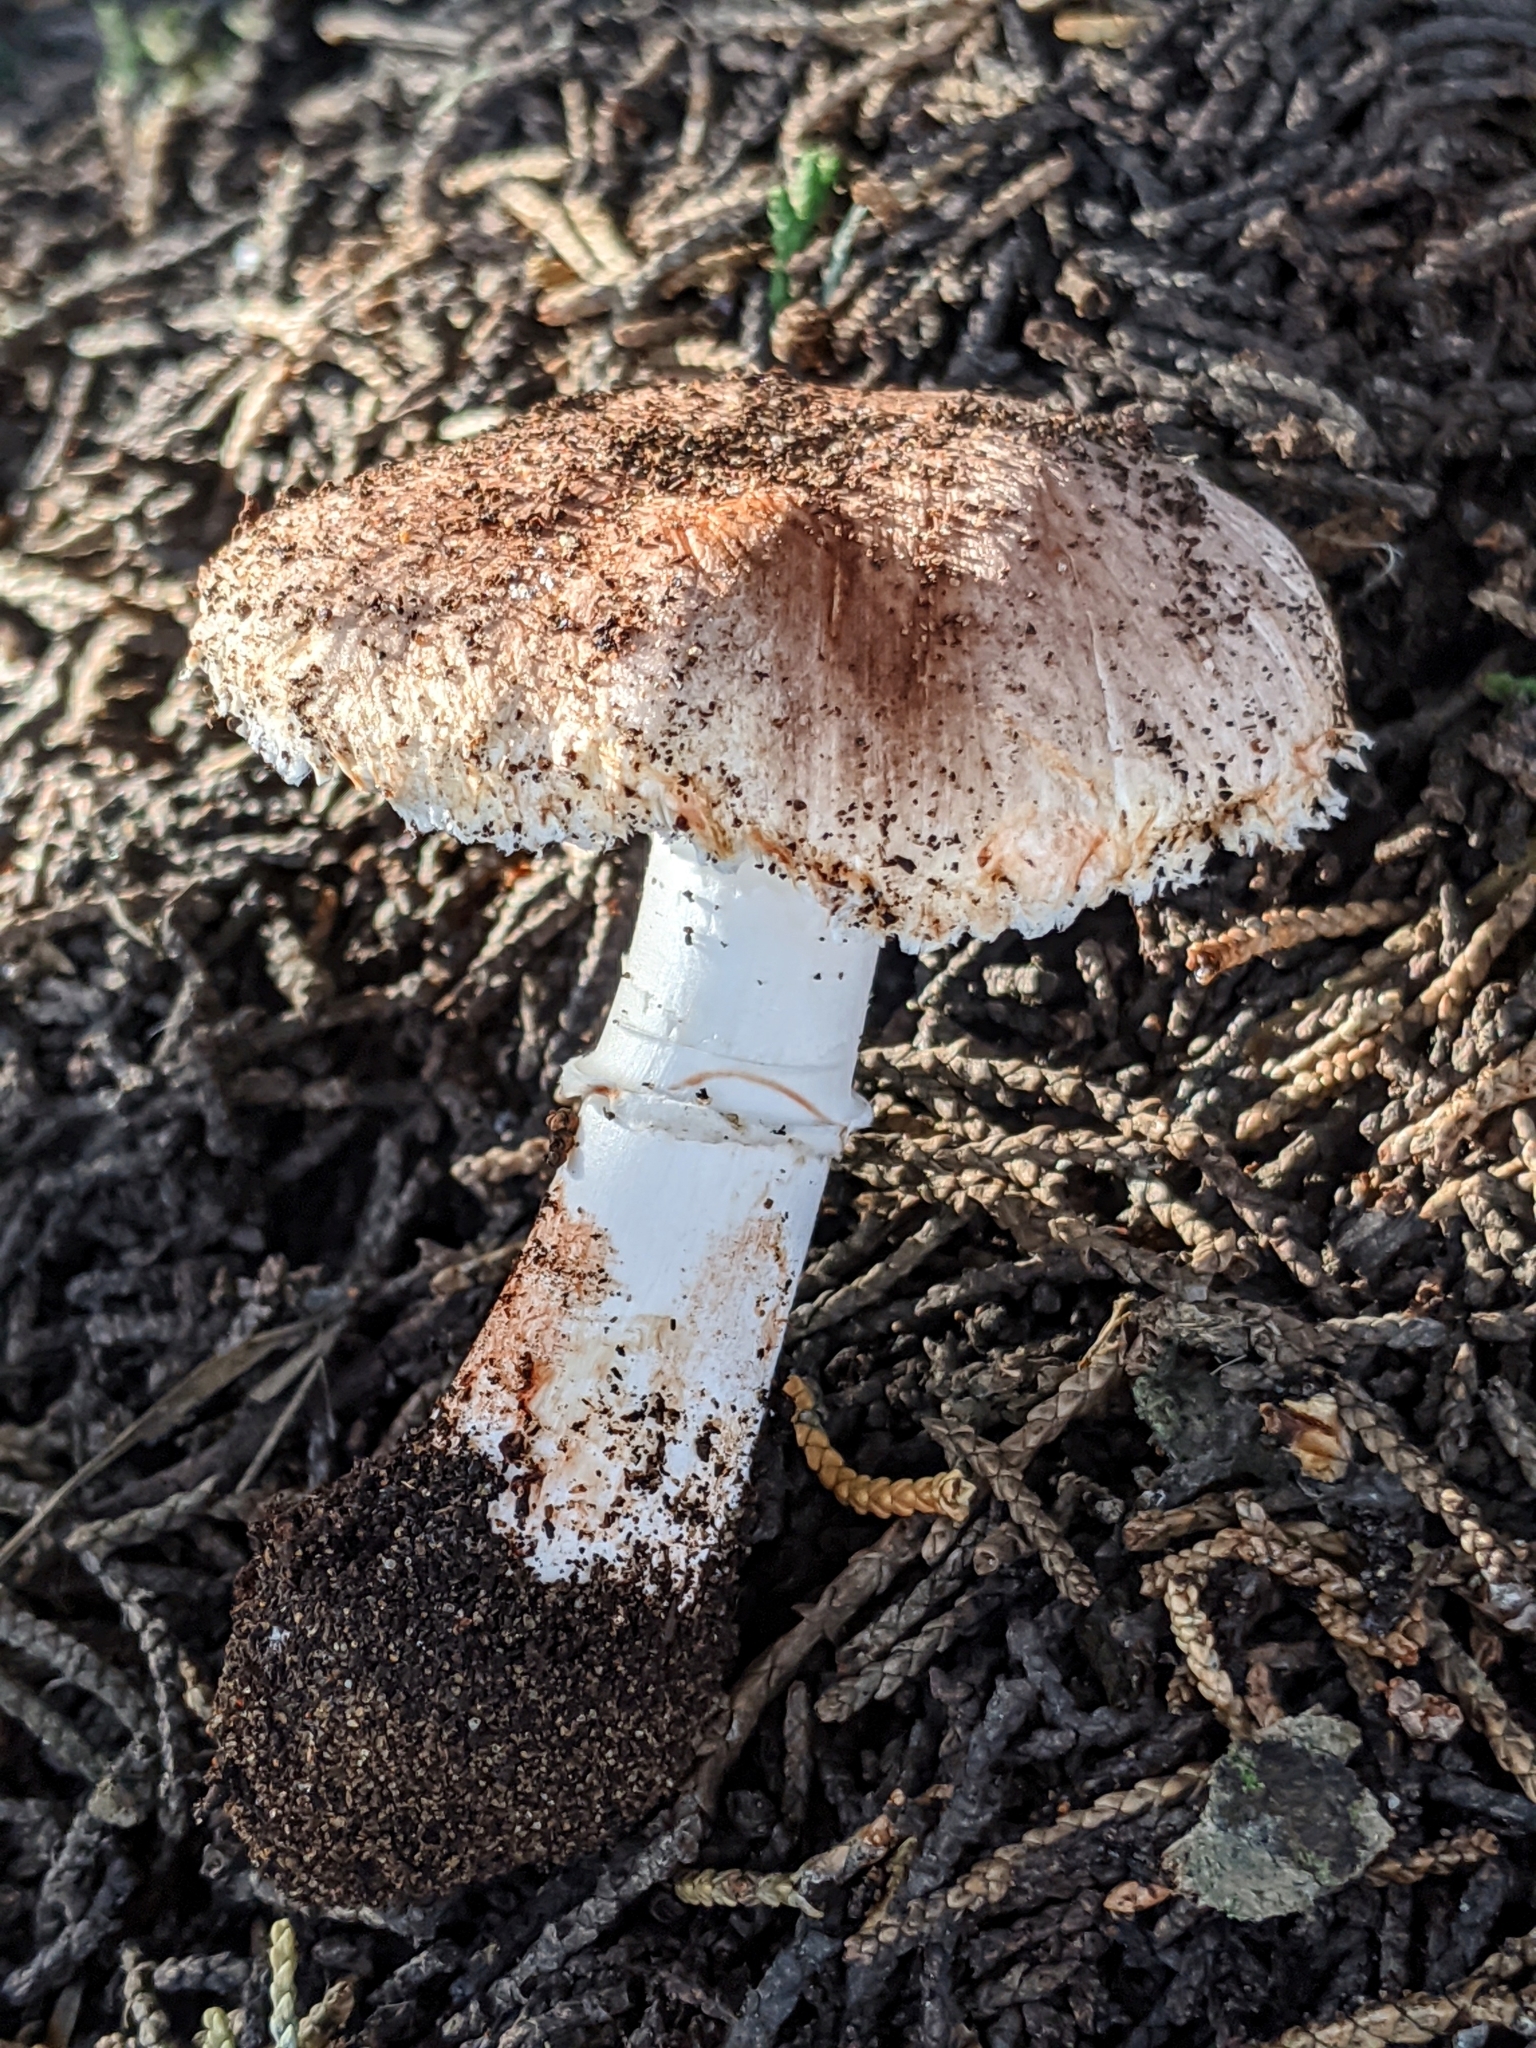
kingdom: Fungi
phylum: Basidiomycota
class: Agaricomycetes
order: Agaricales
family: Agaricaceae
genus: Leucoagaricus
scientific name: Leucoagaricus cupresseus
